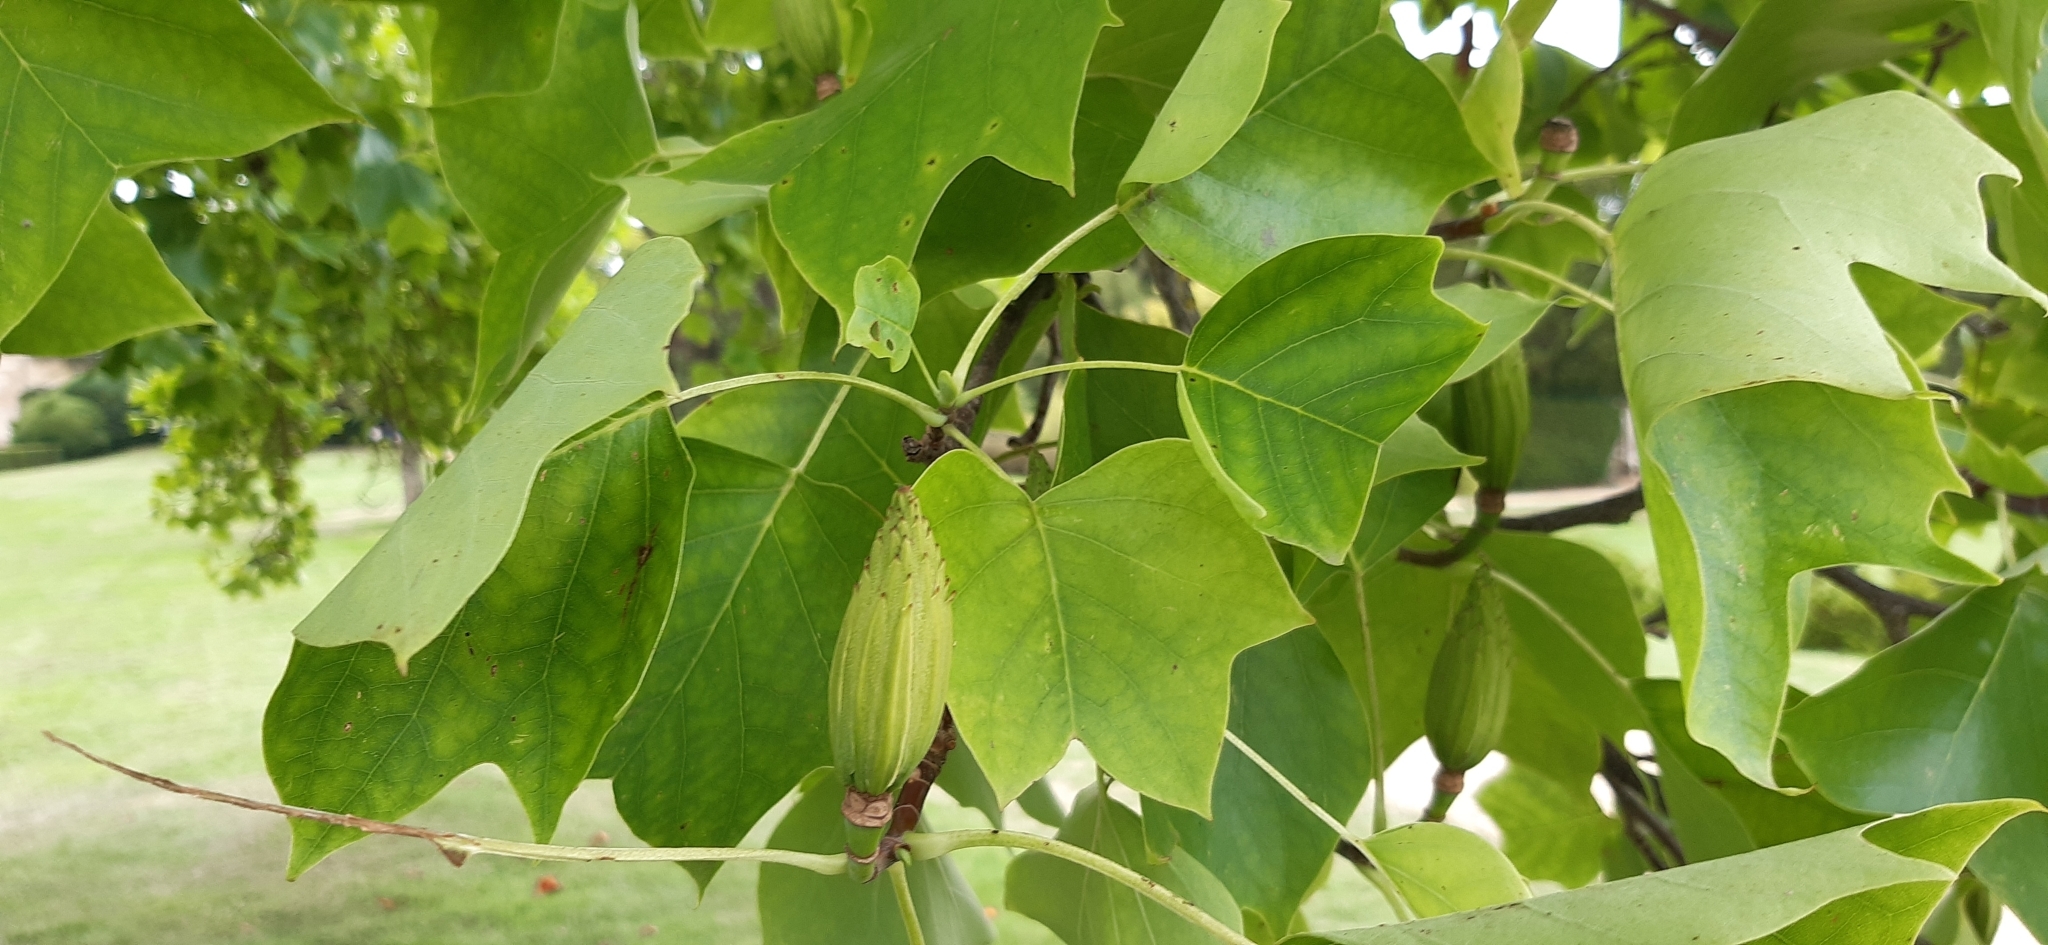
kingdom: Plantae
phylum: Tracheophyta
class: Magnoliopsida
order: Magnoliales
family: Magnoliaceae
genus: Liriodendron
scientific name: Liriodendron tulipifera
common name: Tulip tree
